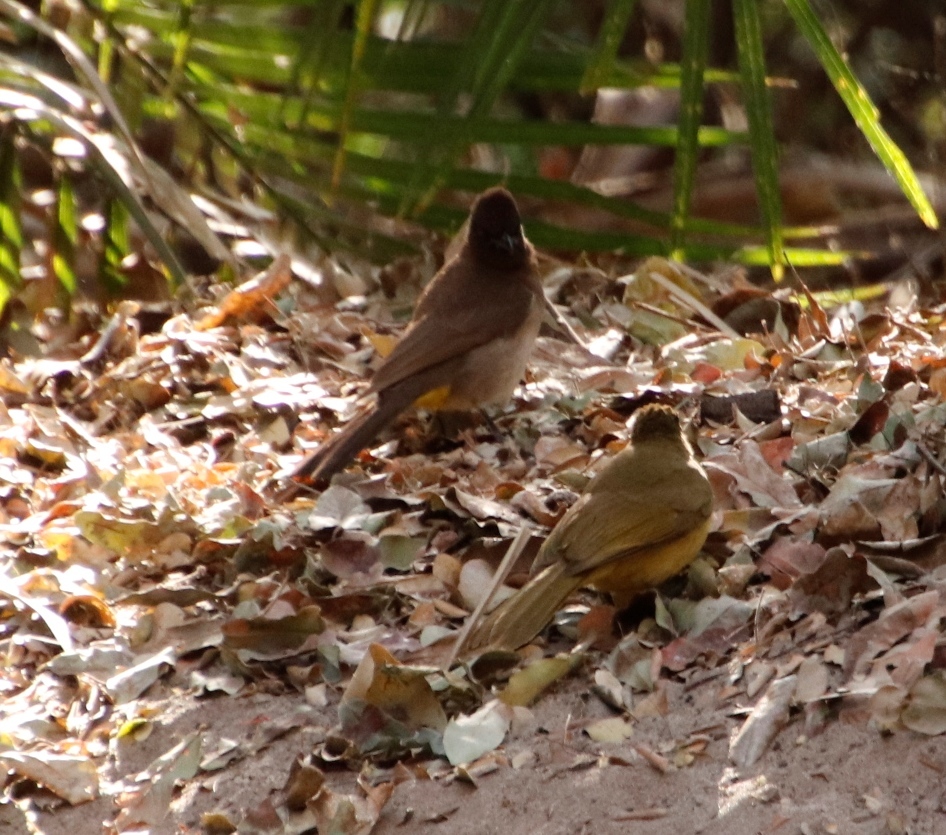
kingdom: Animalia
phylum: Chordata
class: Aves
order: Passeriformes
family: Pycnonotidae
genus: Pycnonotus
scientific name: Pycnonotus barbatus
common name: Common bulbul
